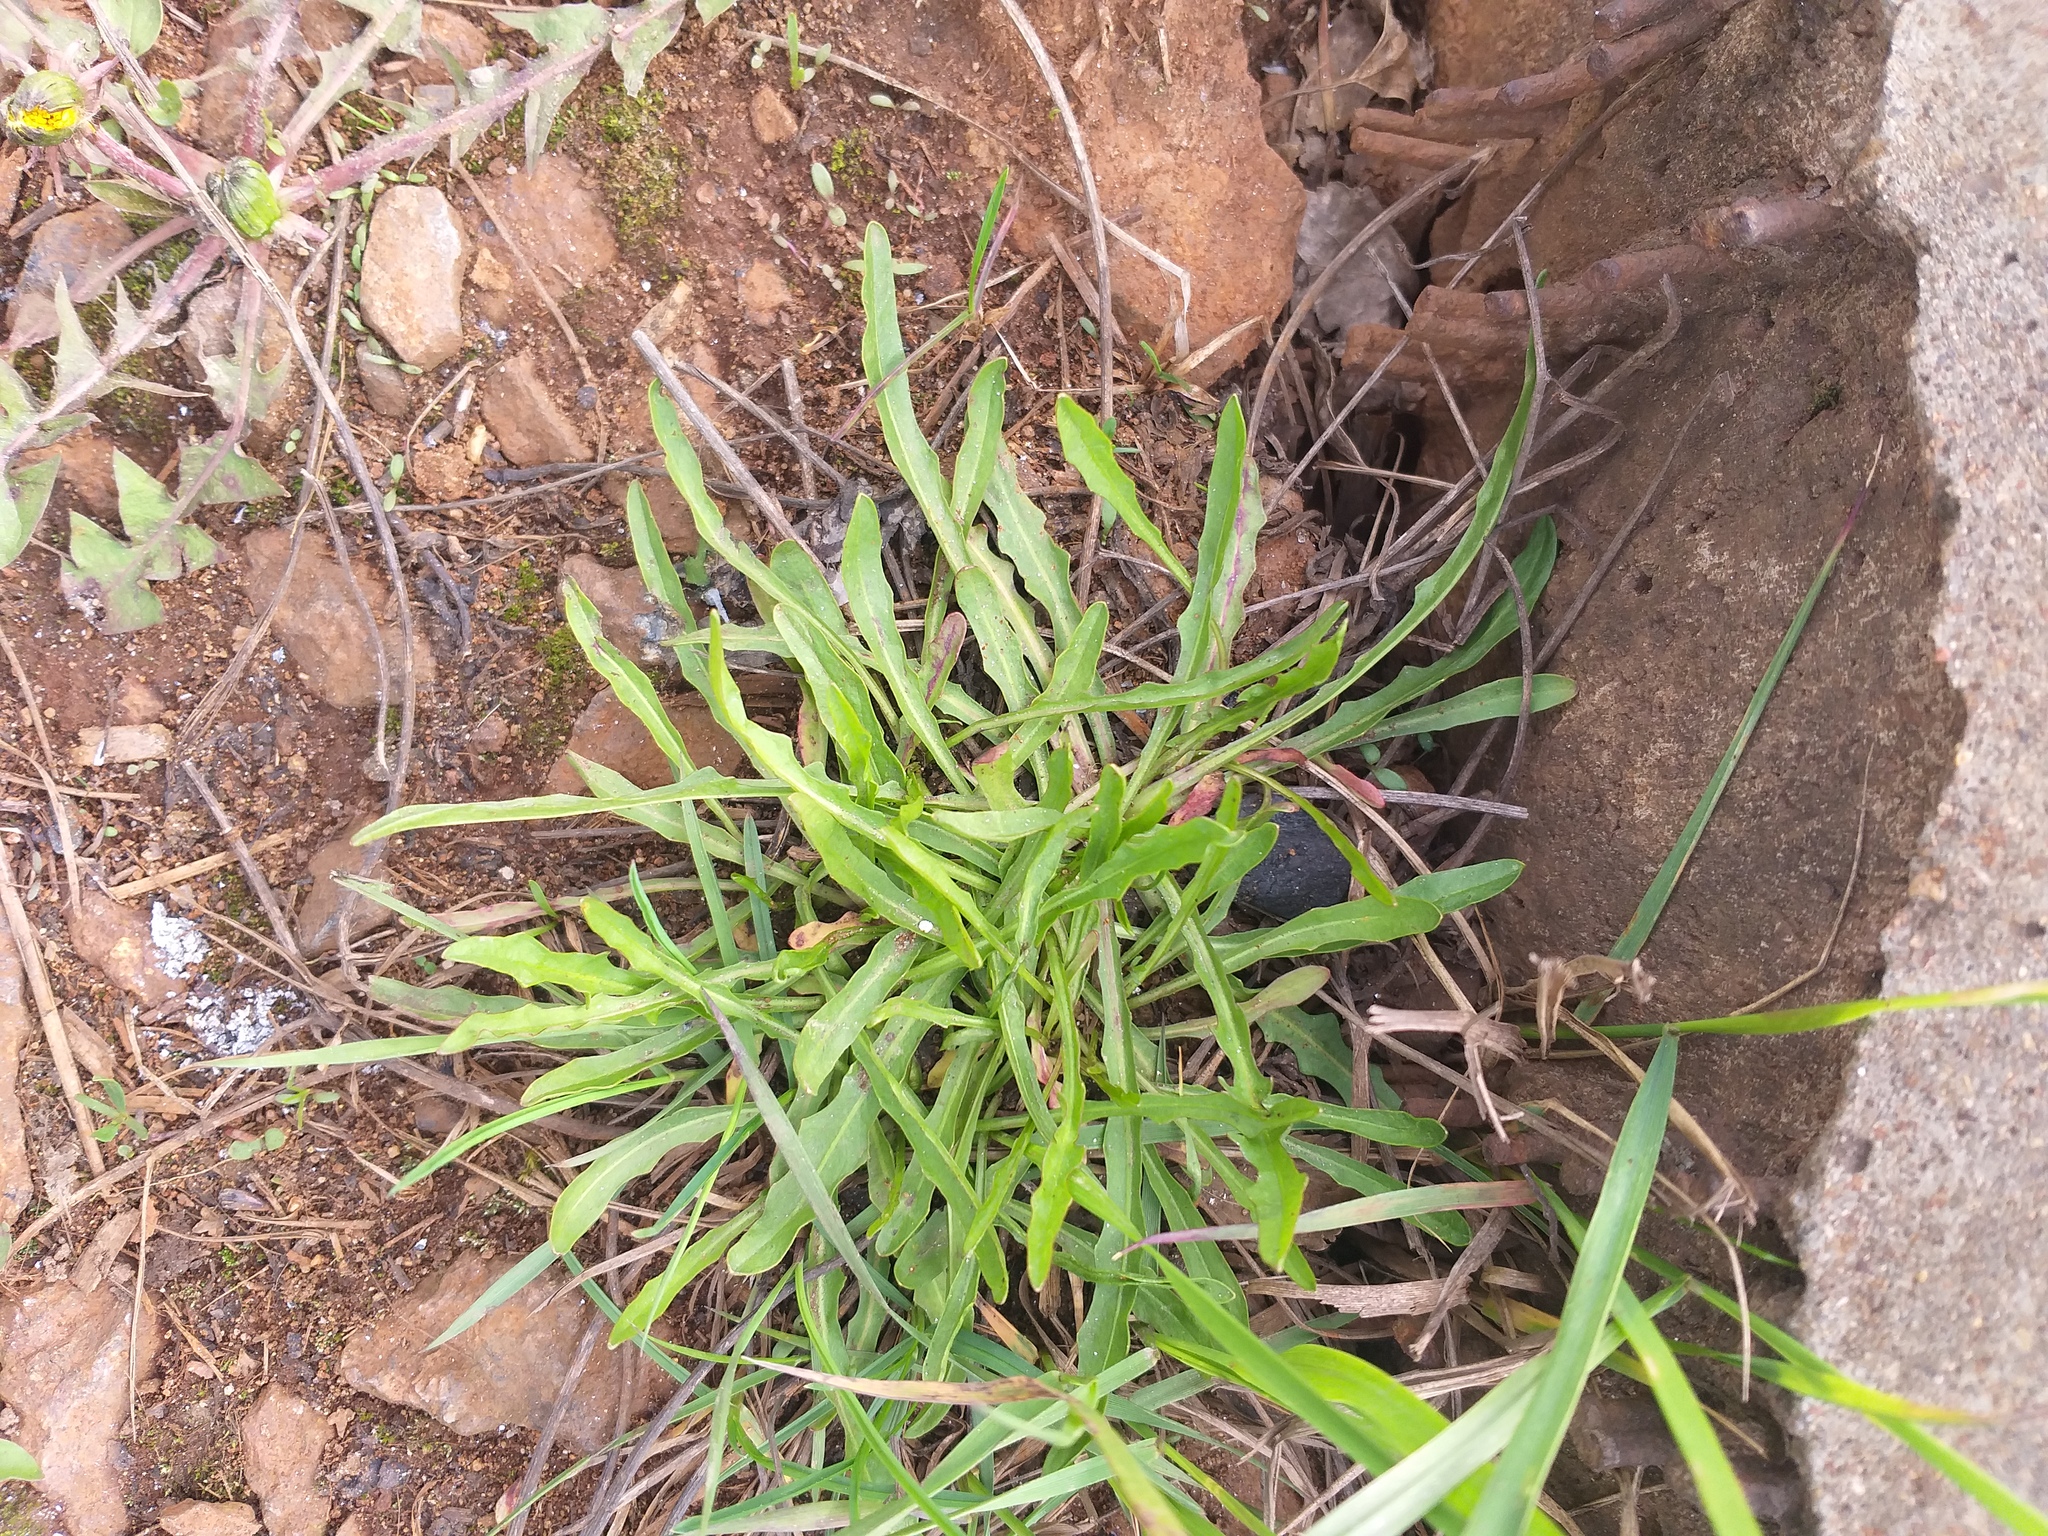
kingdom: Plantae
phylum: Tracheophyta
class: Magnoliopsida
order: Asterales
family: Asteraceae
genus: Scorzoneroides
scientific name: Scorzoneroides autumnalis
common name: Autumn hawkbit
